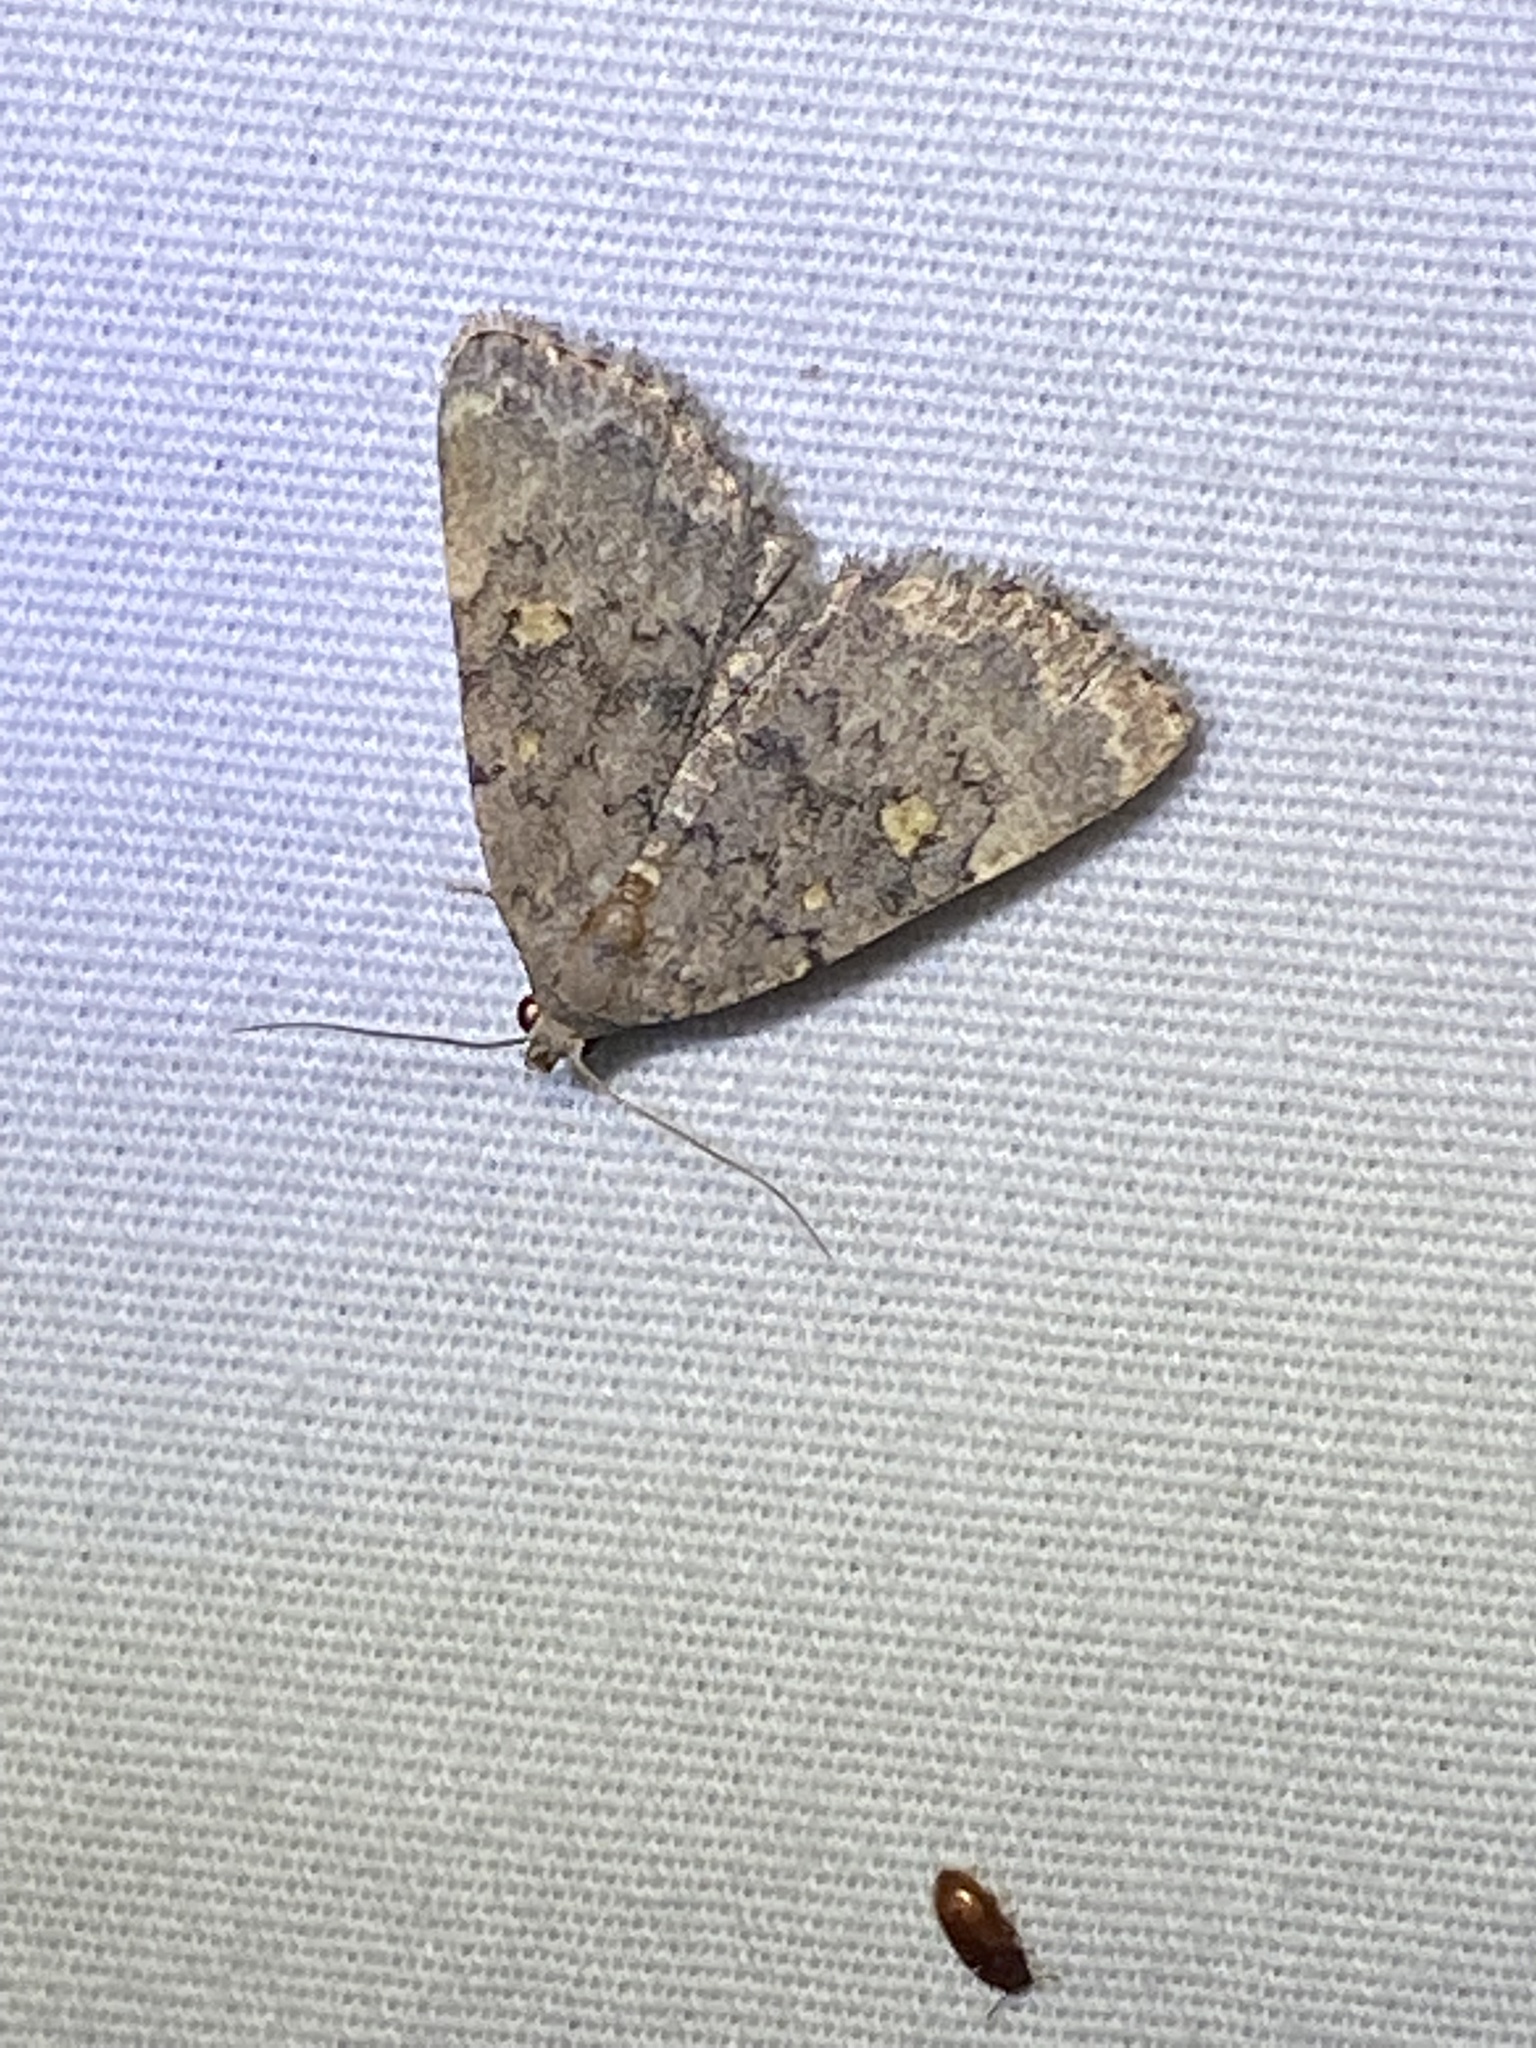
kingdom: Animalia
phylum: Arthropoda
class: Insecta
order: Lepidoptera
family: Erebidae
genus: Idia
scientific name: Idia aemula
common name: Common idia moth
